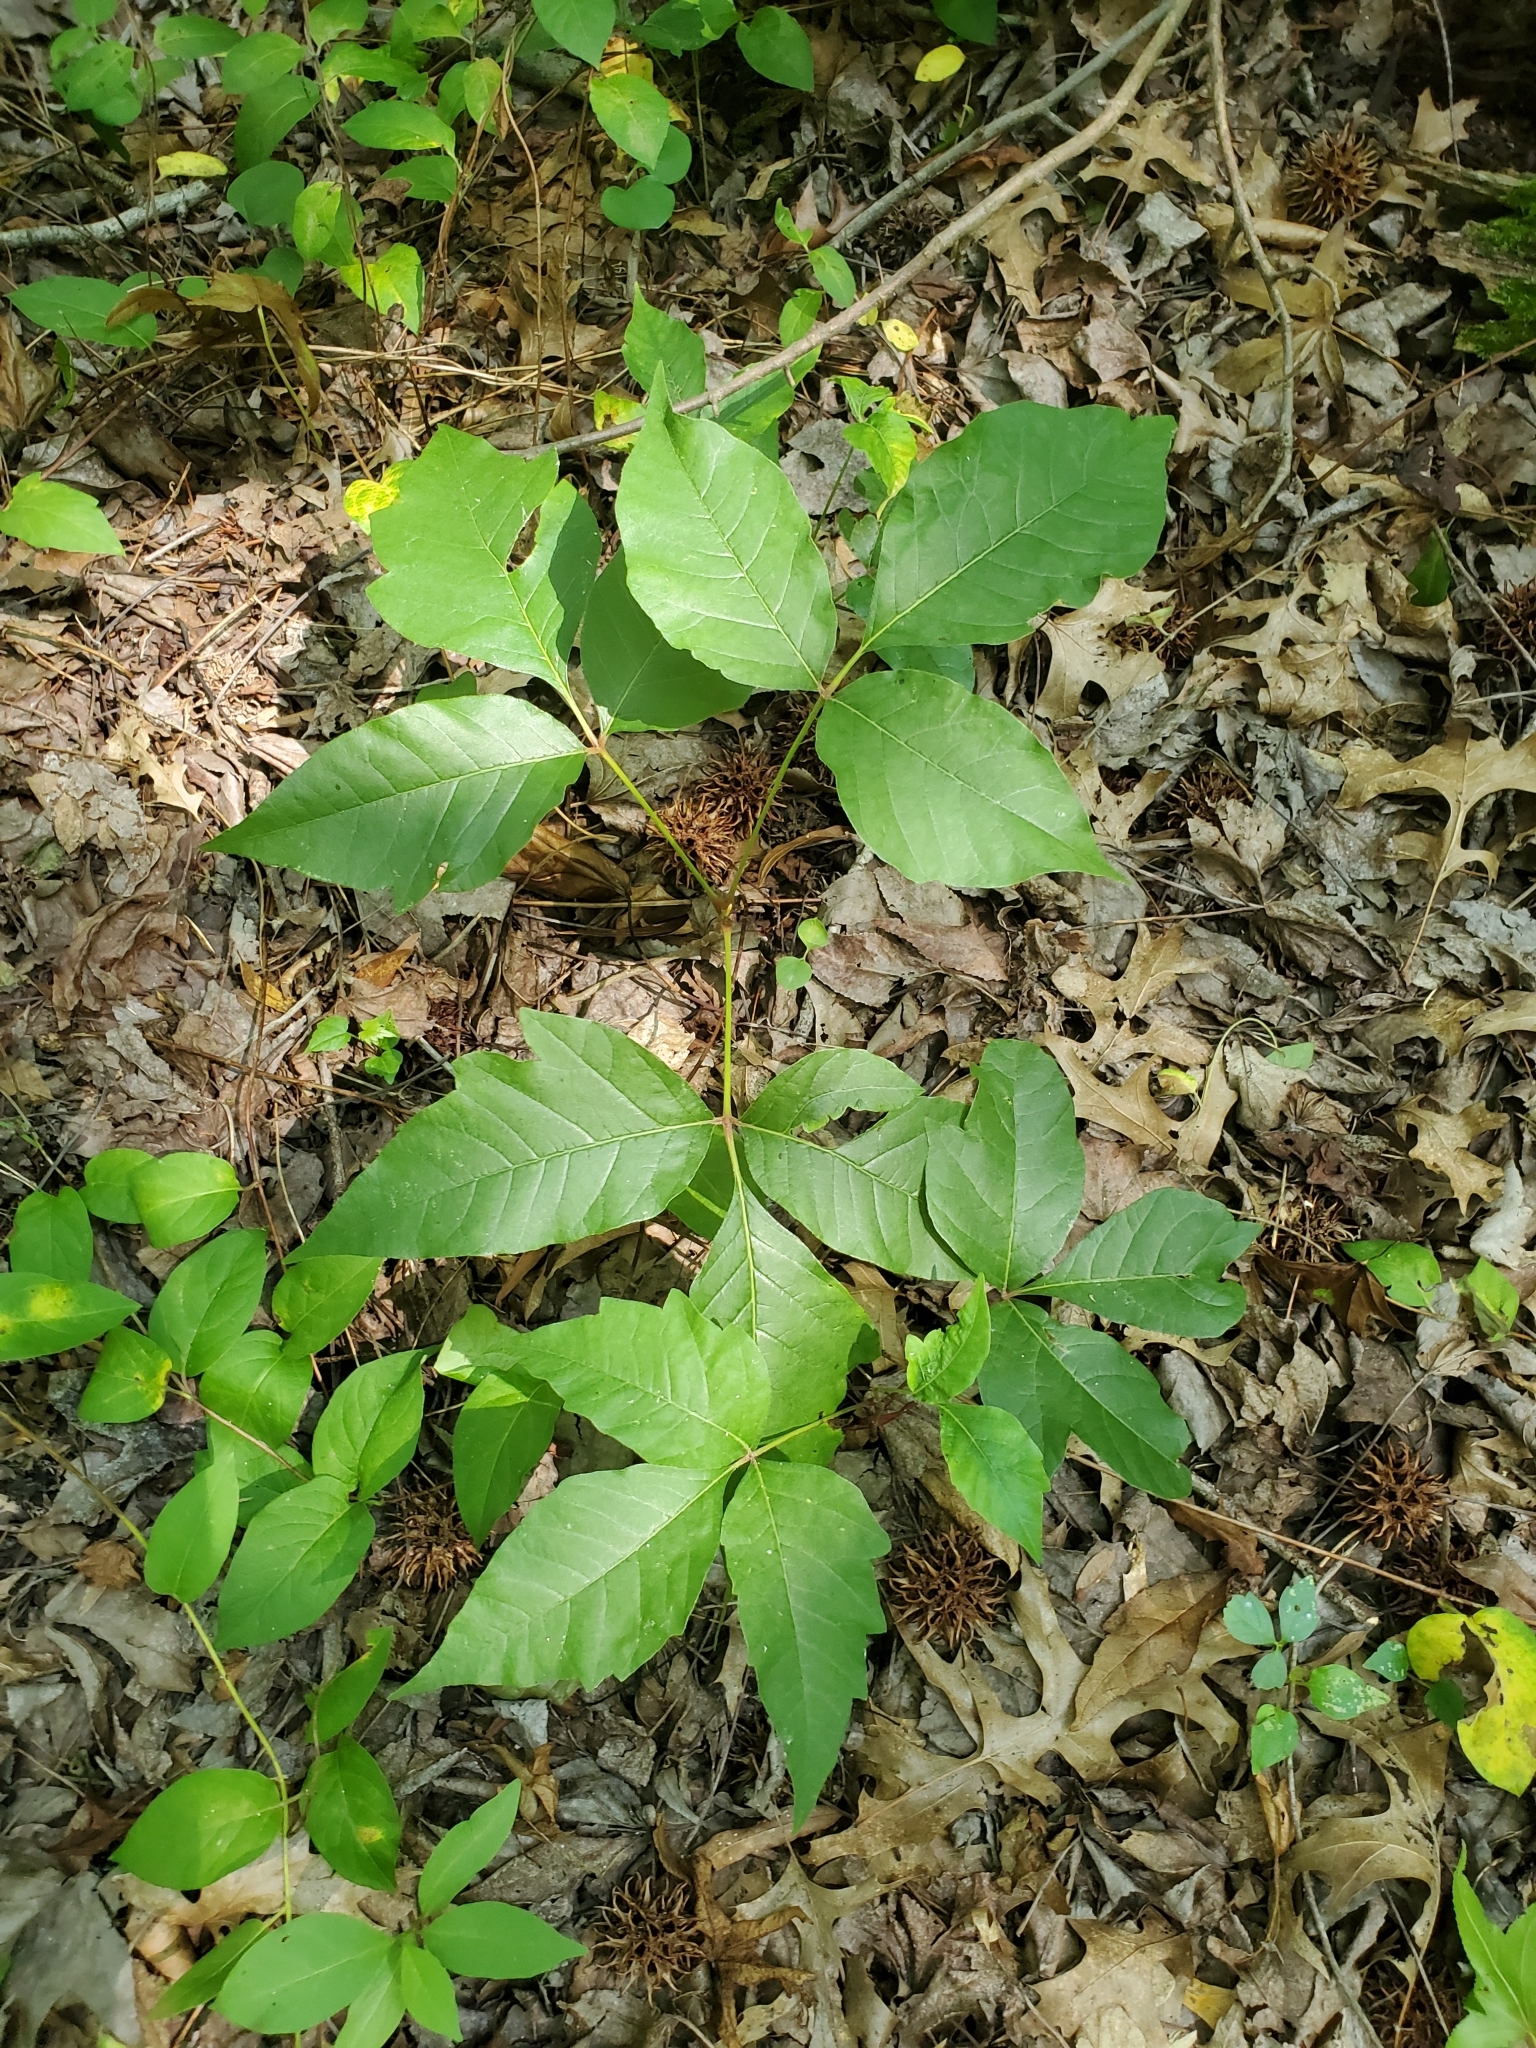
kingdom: Plantae
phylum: Tracheophyta
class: Magnoliopsida
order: Sapindales
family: Anacardiaceae
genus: Toxicodendron
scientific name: Toxicodendron radicans
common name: Poison ivy
